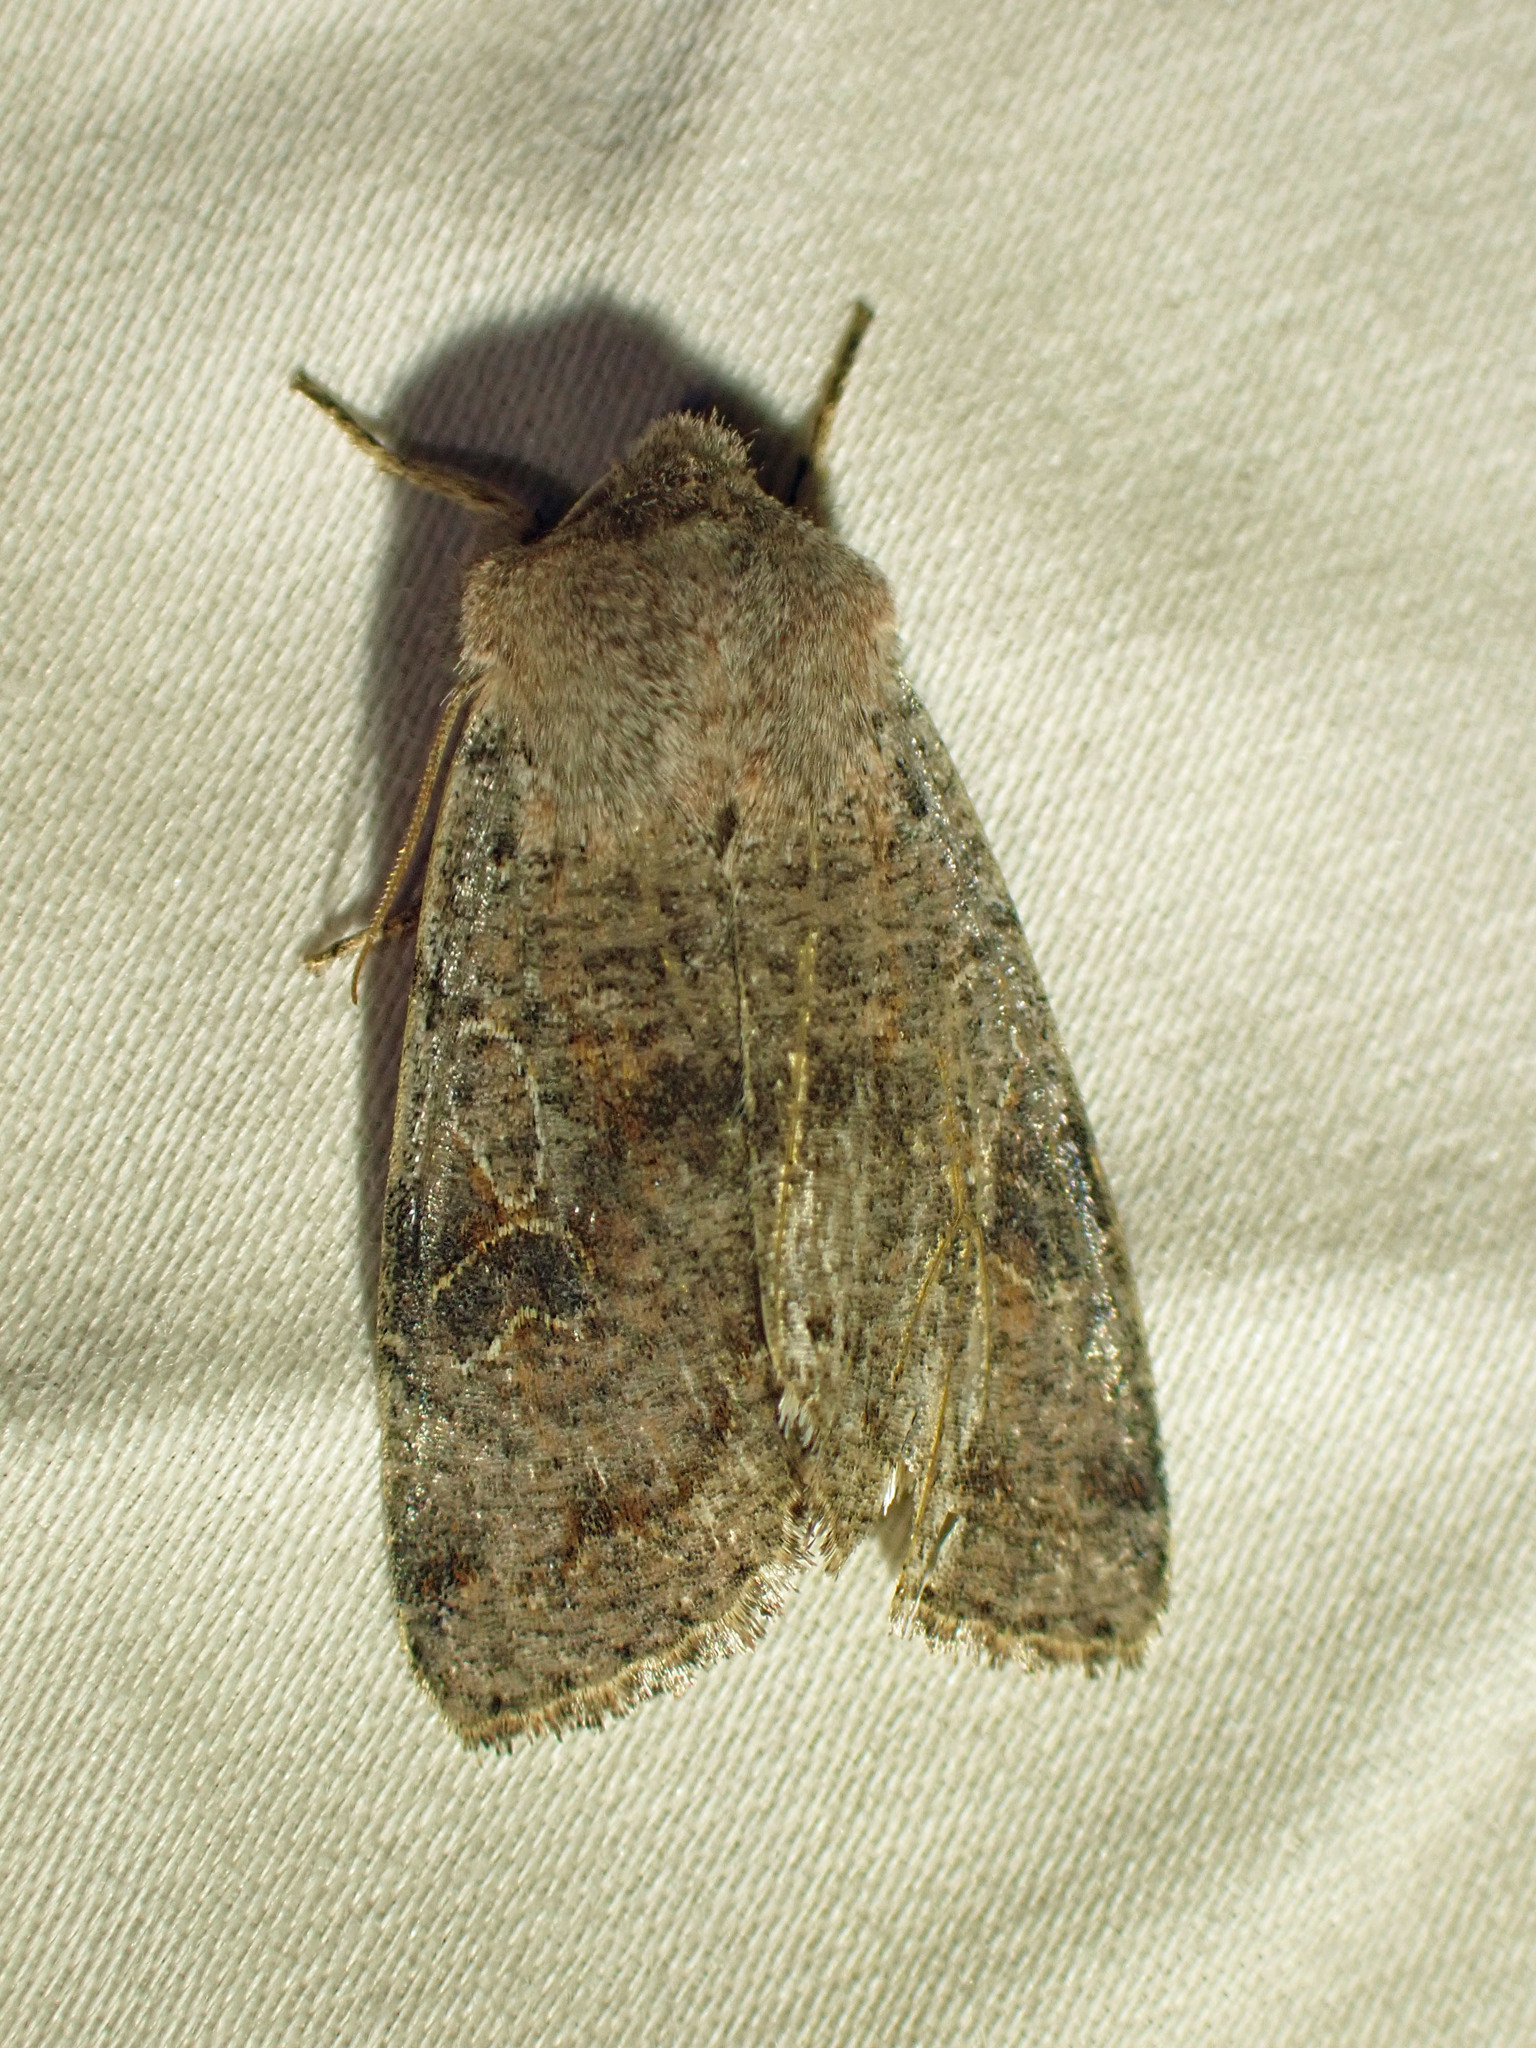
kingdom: Animalia
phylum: Arthropoda
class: Insecta
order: Lepidoptera
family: Noctuidae
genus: Orthosia
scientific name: Orthosia hibisci
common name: Green fruitworm
